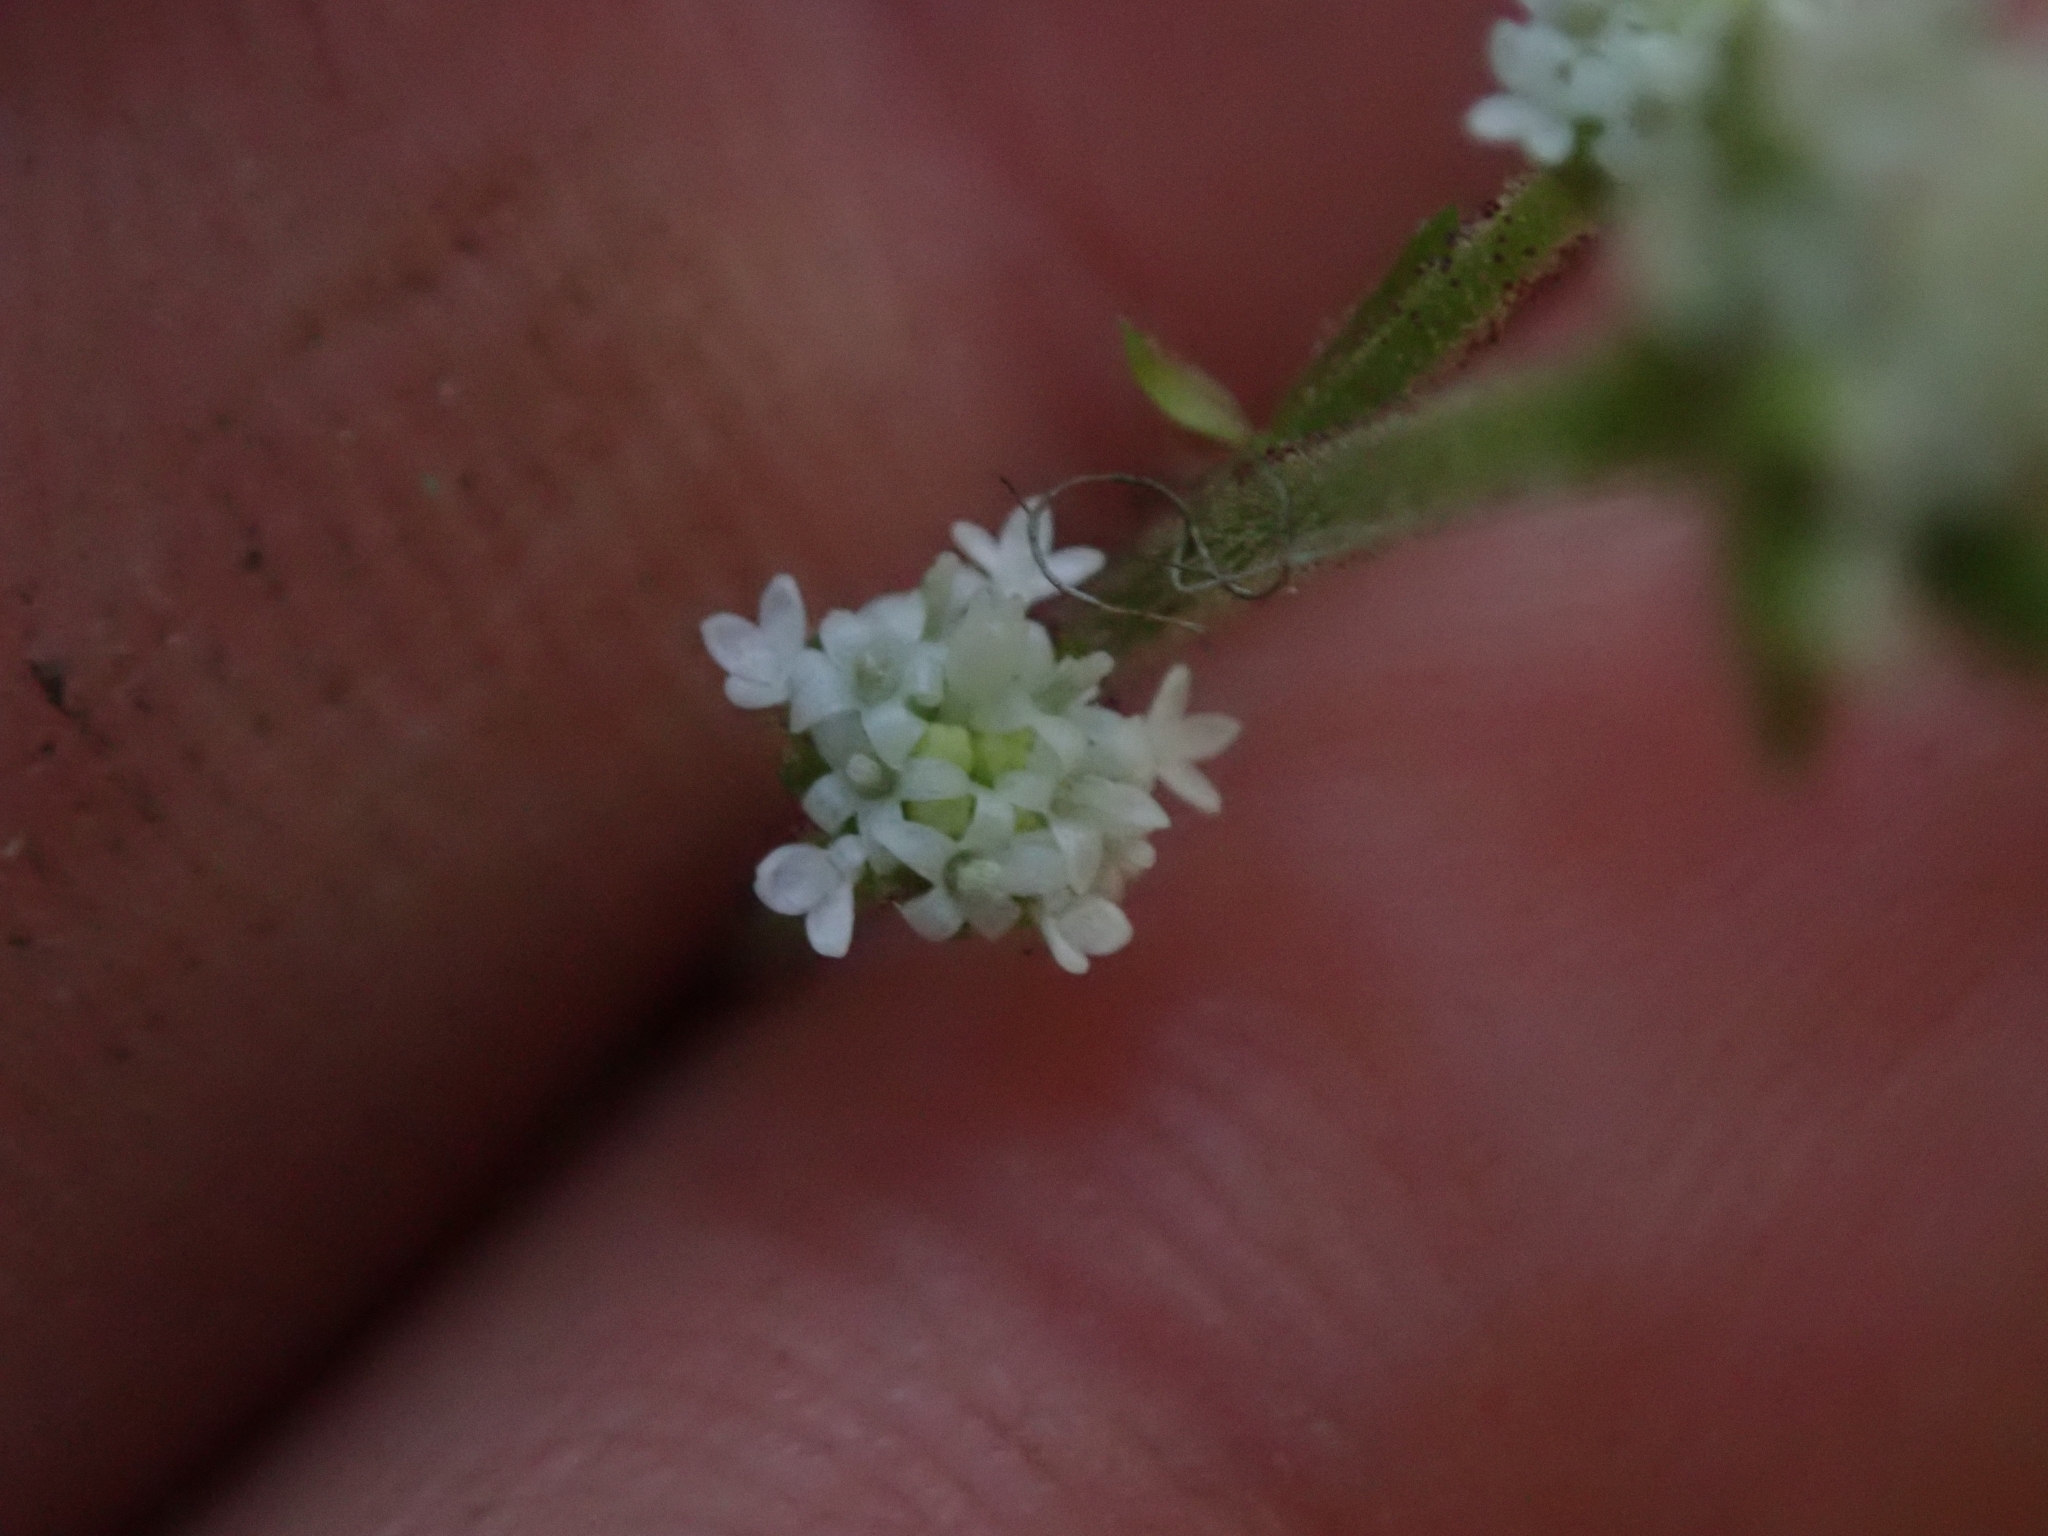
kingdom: Plantae
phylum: Tracheophyta
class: Magnoliopsida
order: Asterales
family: Asteraceae
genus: Adenocaulon
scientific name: Adenocaulon bicolor
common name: Trailplant
